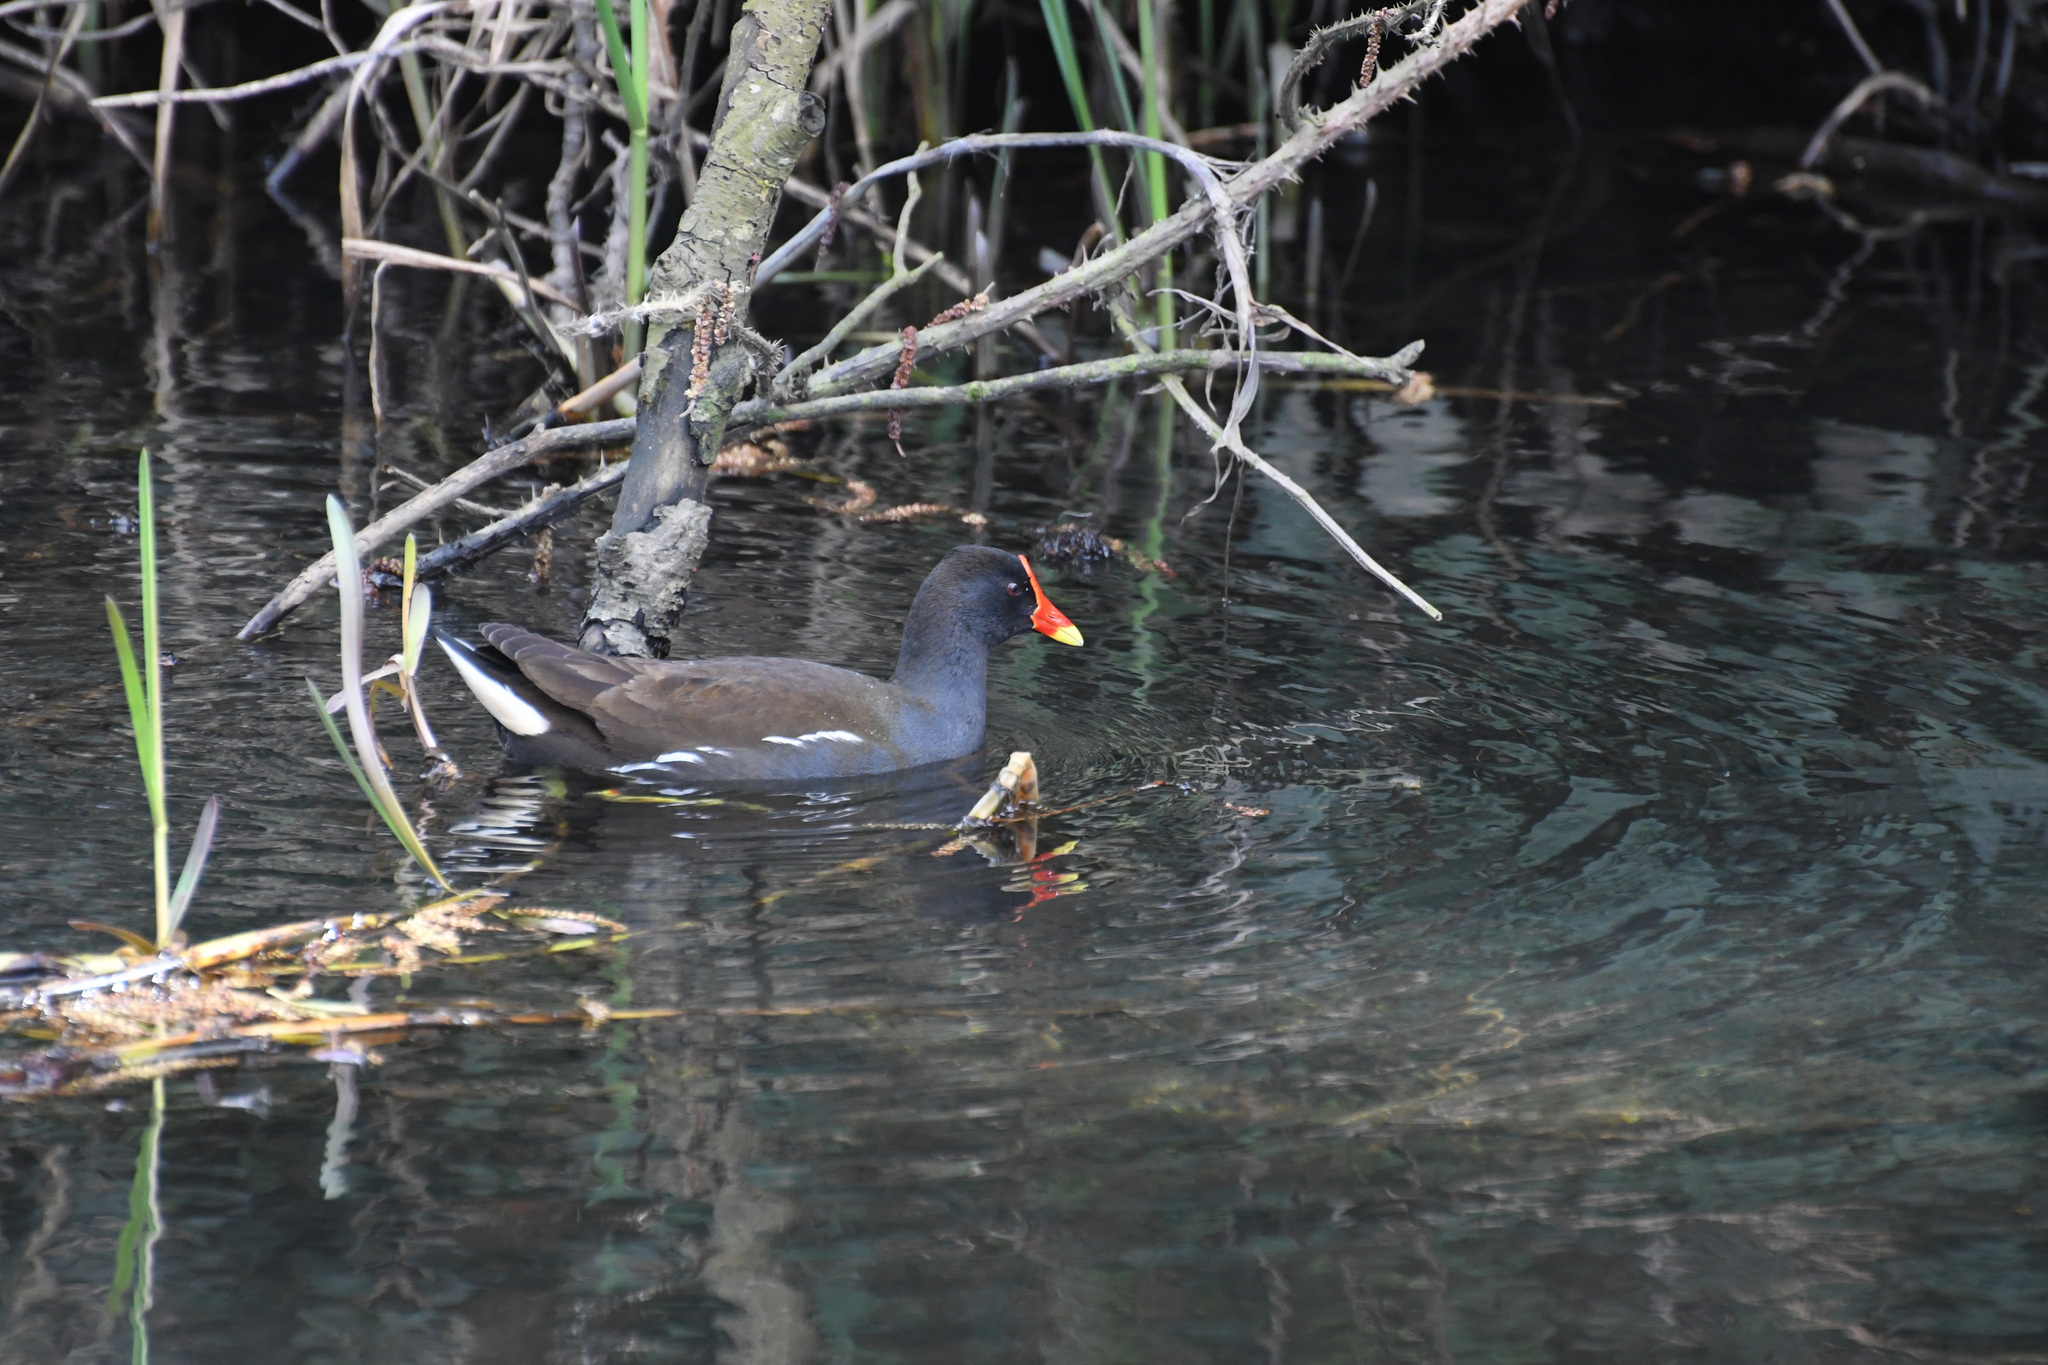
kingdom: Animalia
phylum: Chordata
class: Aves
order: Gruiformes
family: Rallidae
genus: Gallinula
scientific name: Gallinula chloropus
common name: Common moorhen
